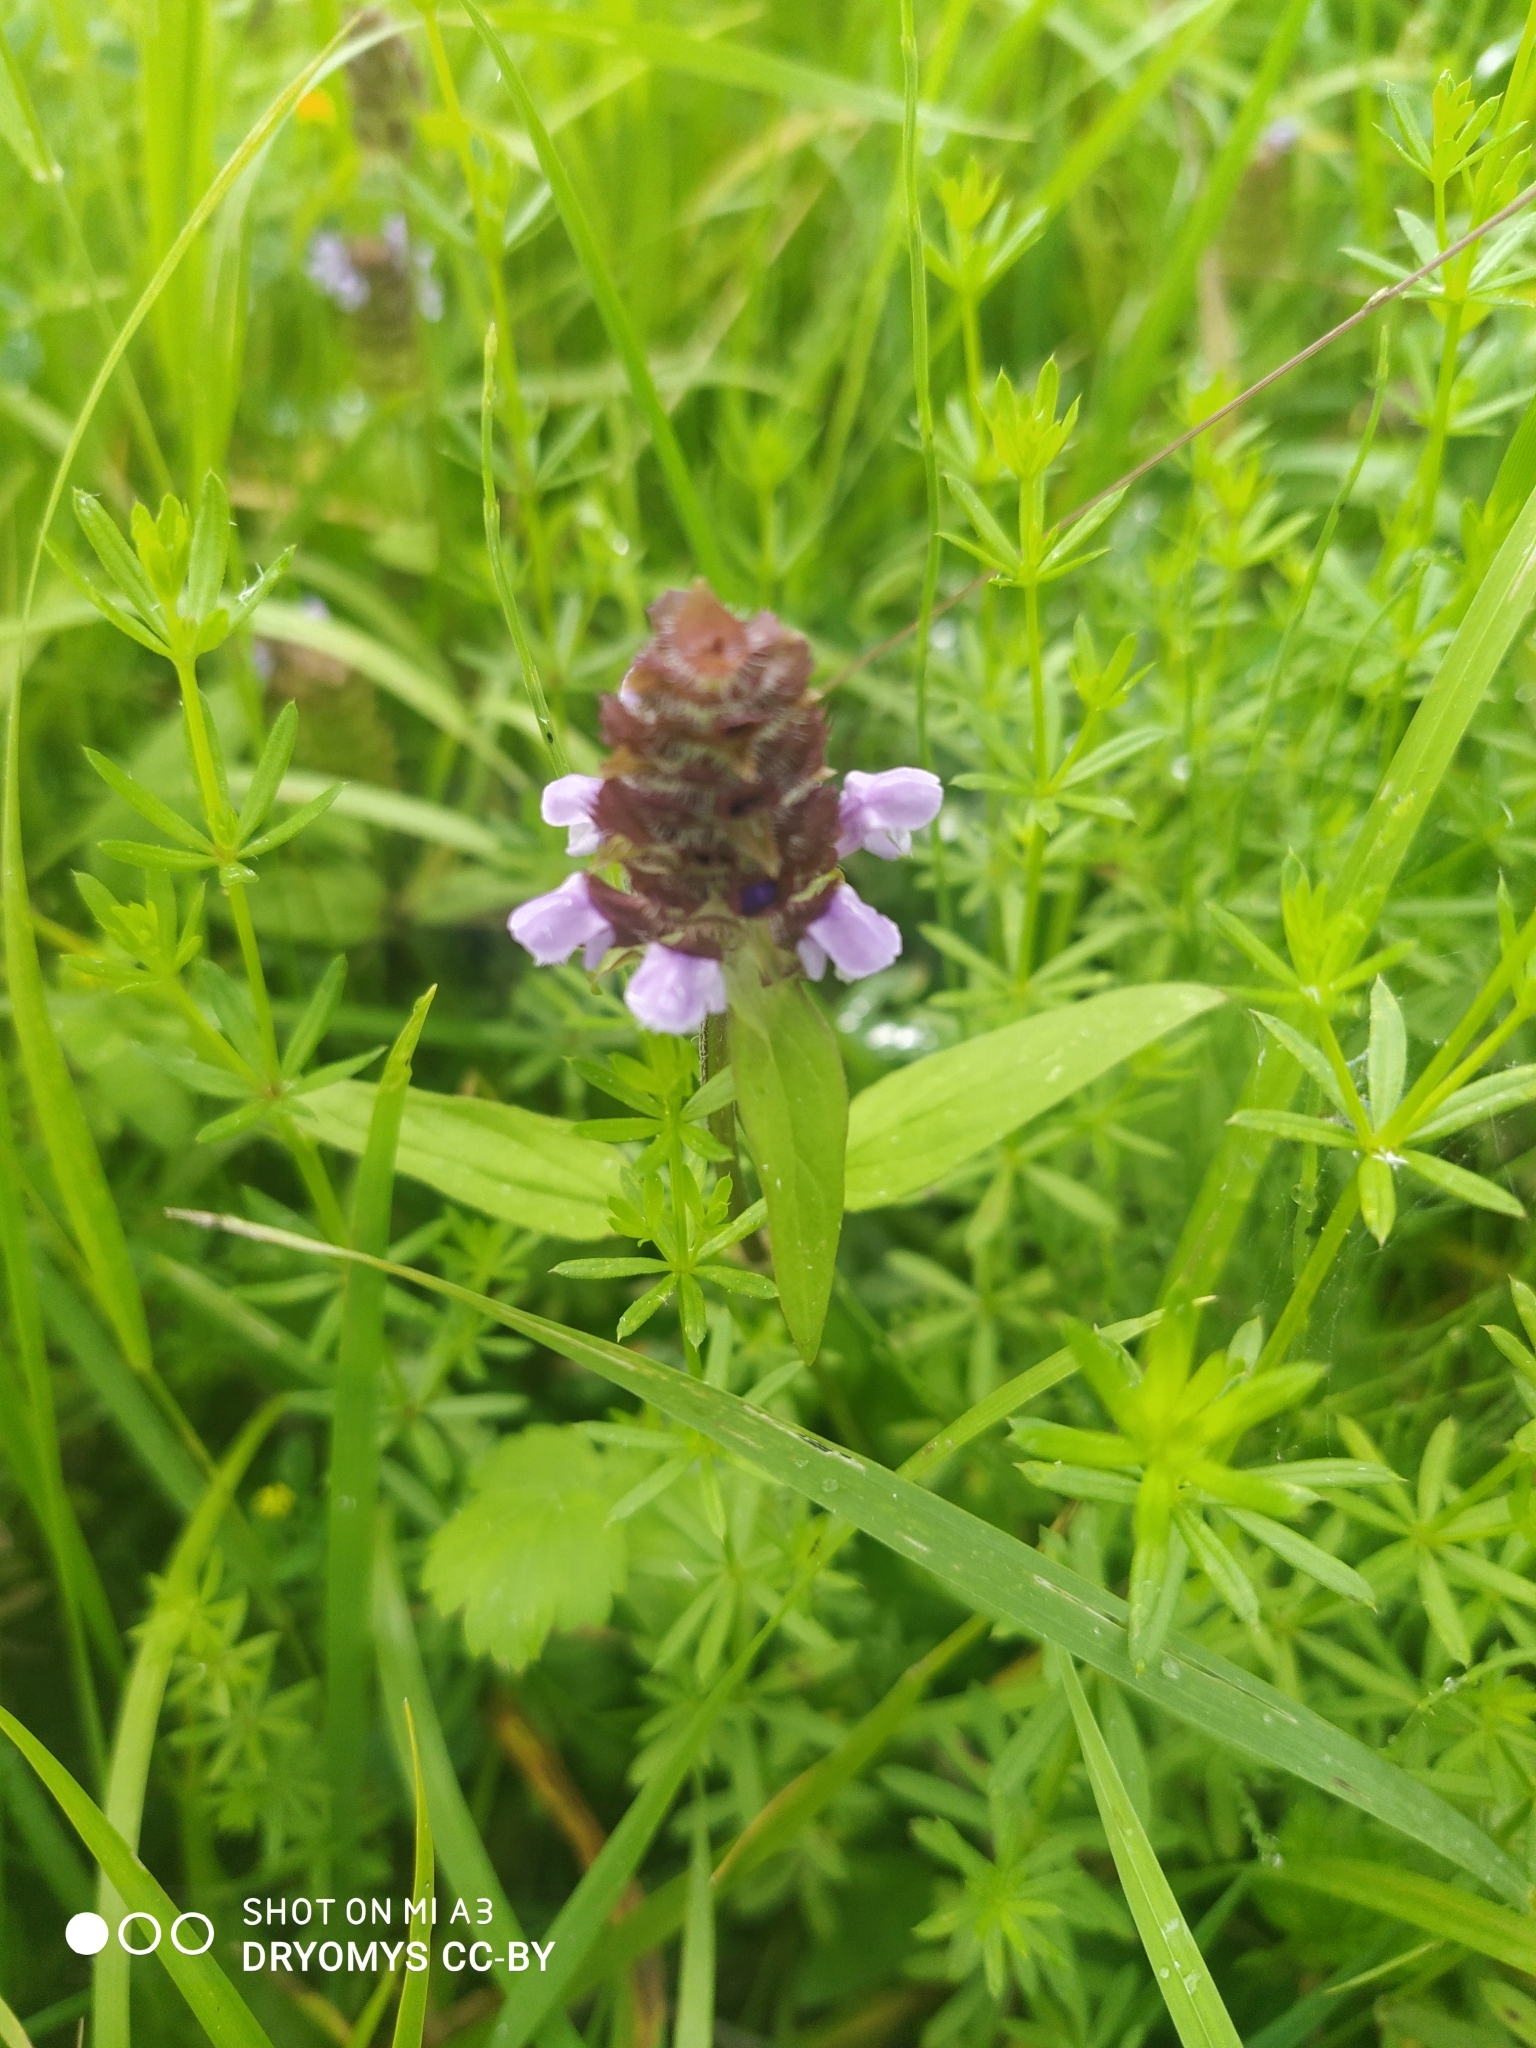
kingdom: Plantae
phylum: Tracheophyta
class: Magnoliopsida
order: Lamiales
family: Lamiaceae
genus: Prunella
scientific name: Prunella vulgaris
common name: Heal-all
